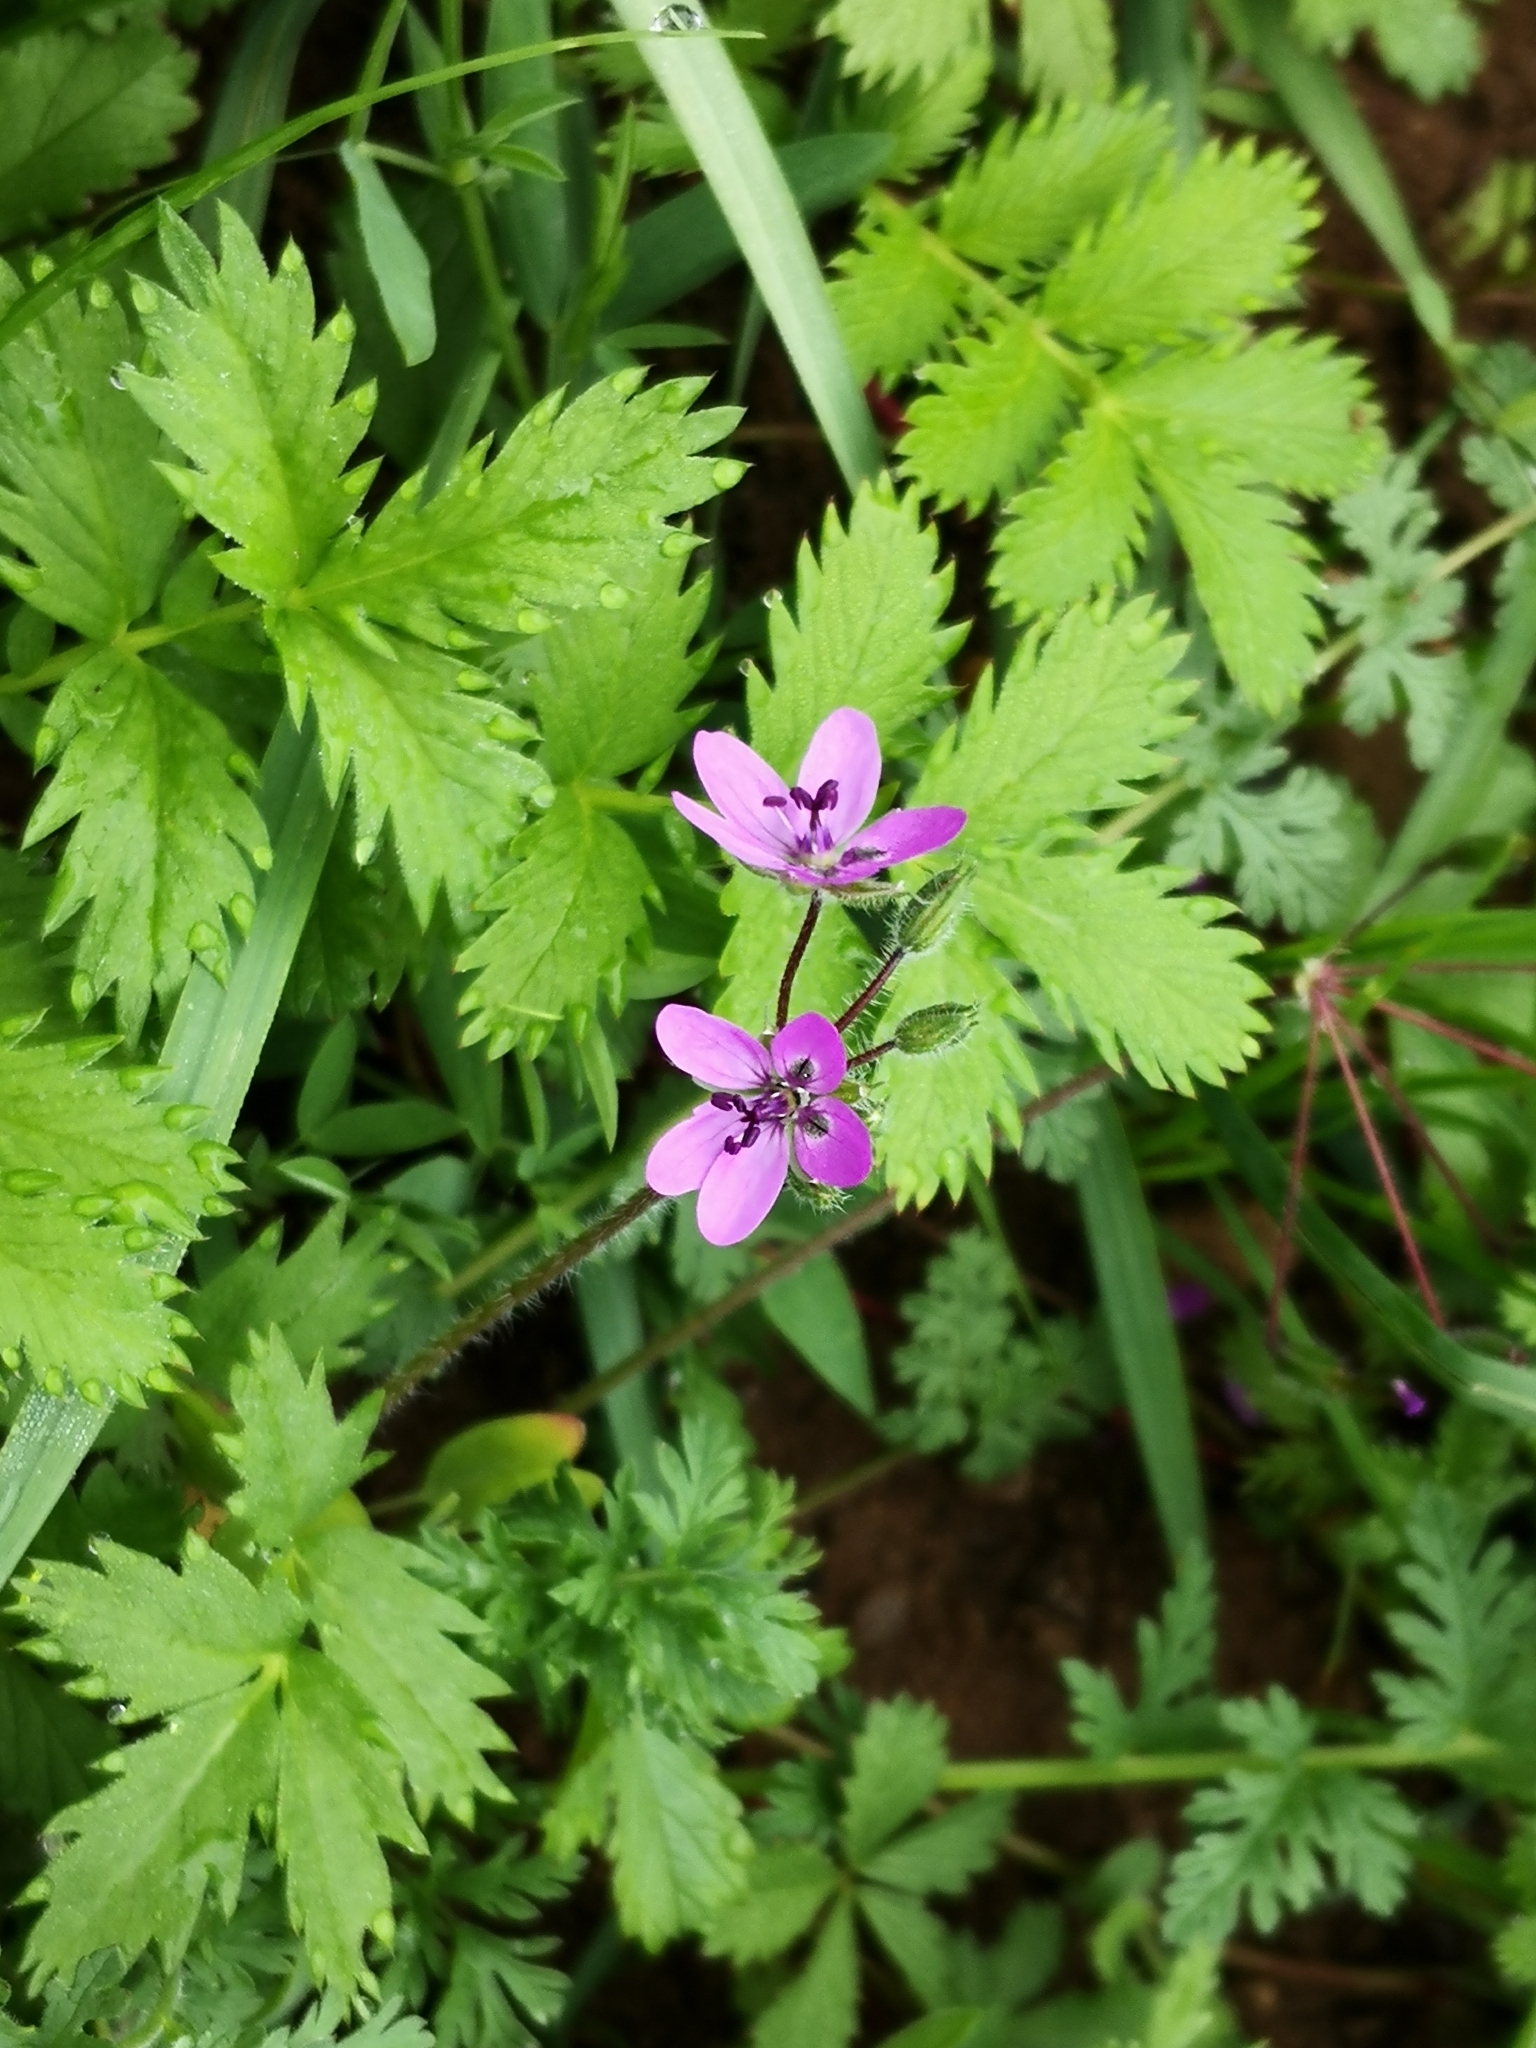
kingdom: Plantae
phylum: Tracheophyta
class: Magnoliopsida
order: Geraniales
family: Geraniaceae
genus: Erodium
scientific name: Erodium cicutarium
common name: Common stork's-bill
